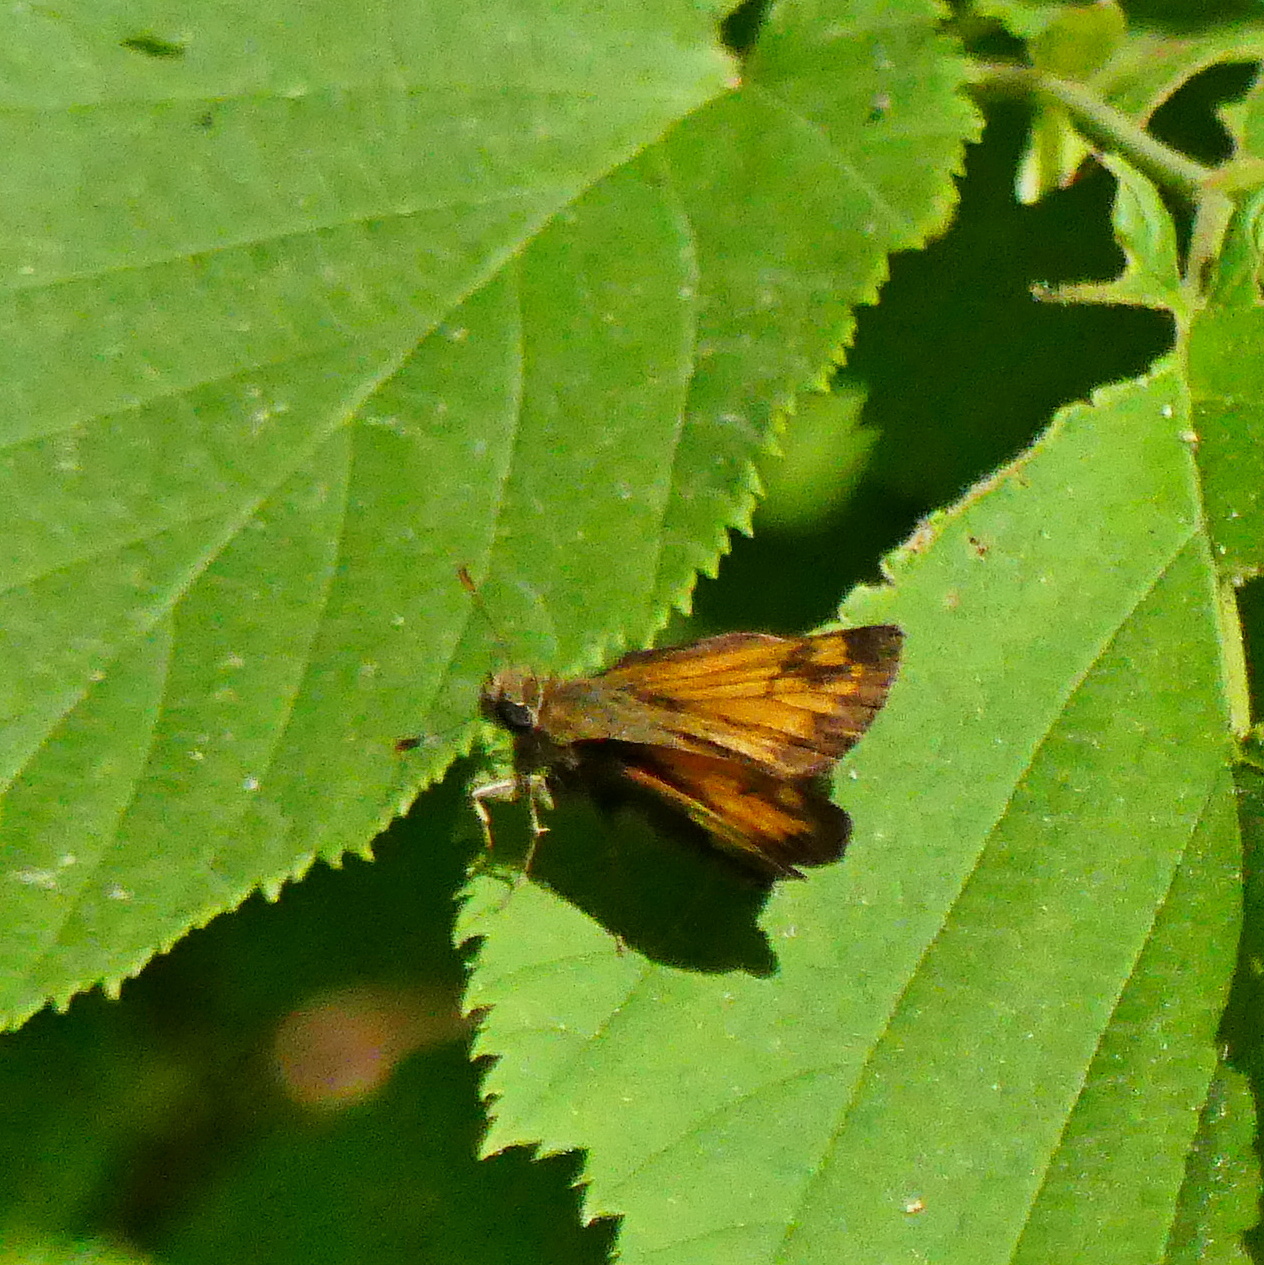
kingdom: Animalia
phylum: Arthropoda
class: Insecta
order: Lepidoptera
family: Hesperiidae
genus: Lon
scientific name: Lon hobomok
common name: Hobomok skipper
